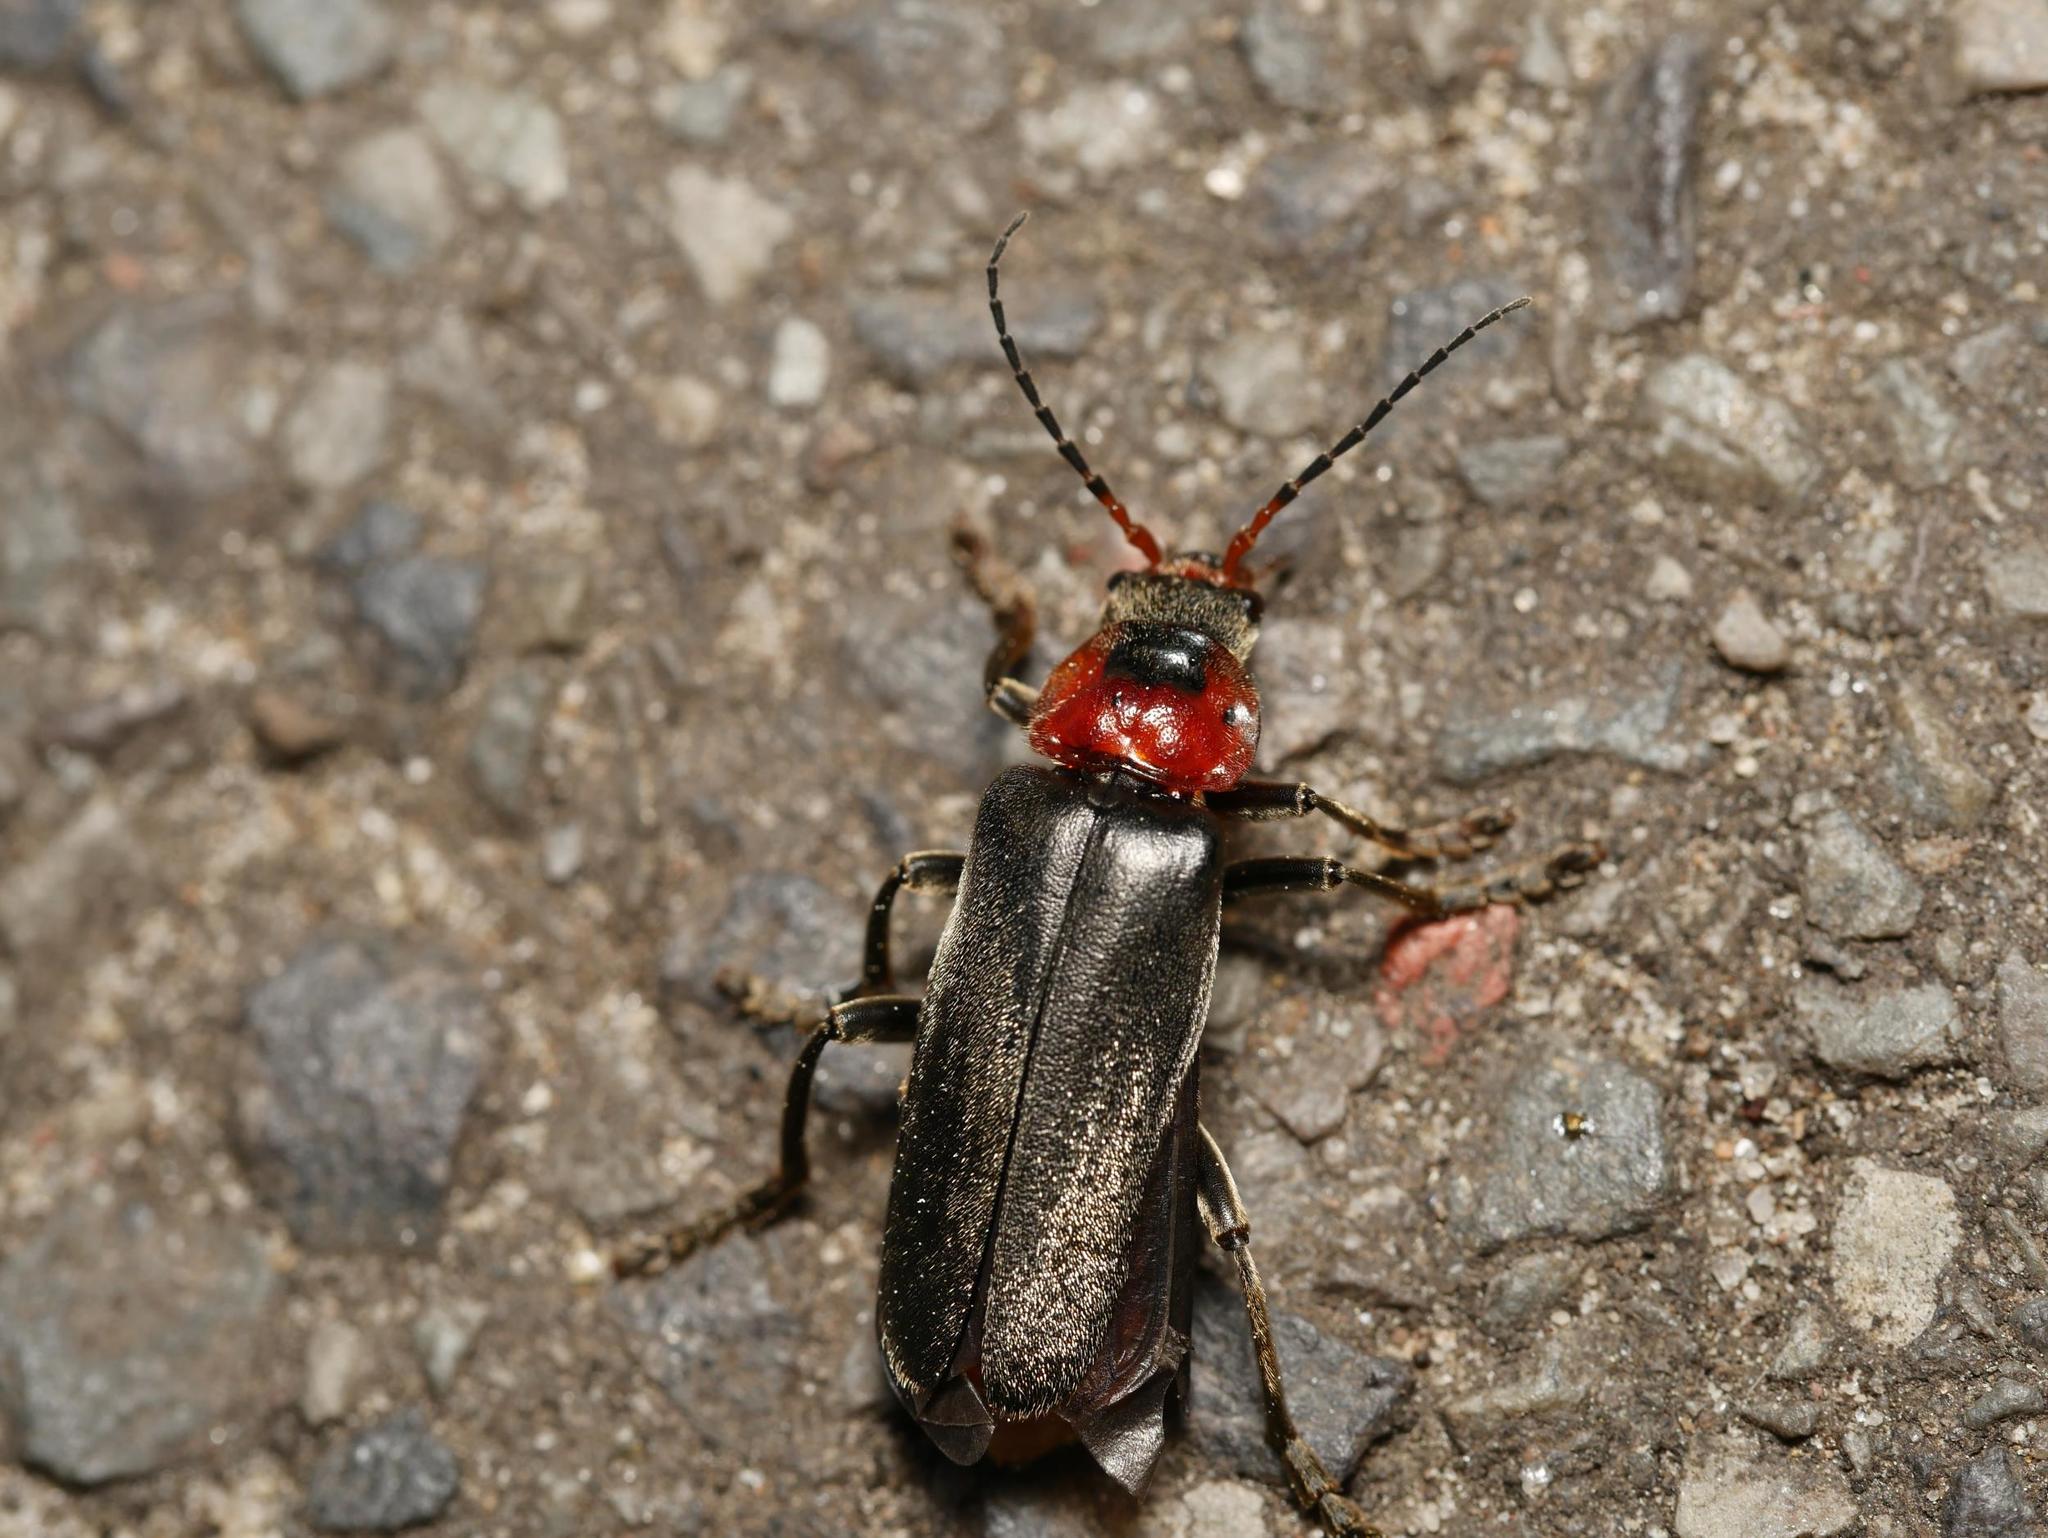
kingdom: Animalia
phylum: Arthropoda
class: Insecta
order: Coleoptera
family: Cantharidae
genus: Cantharis
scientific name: Cantharis fusca
